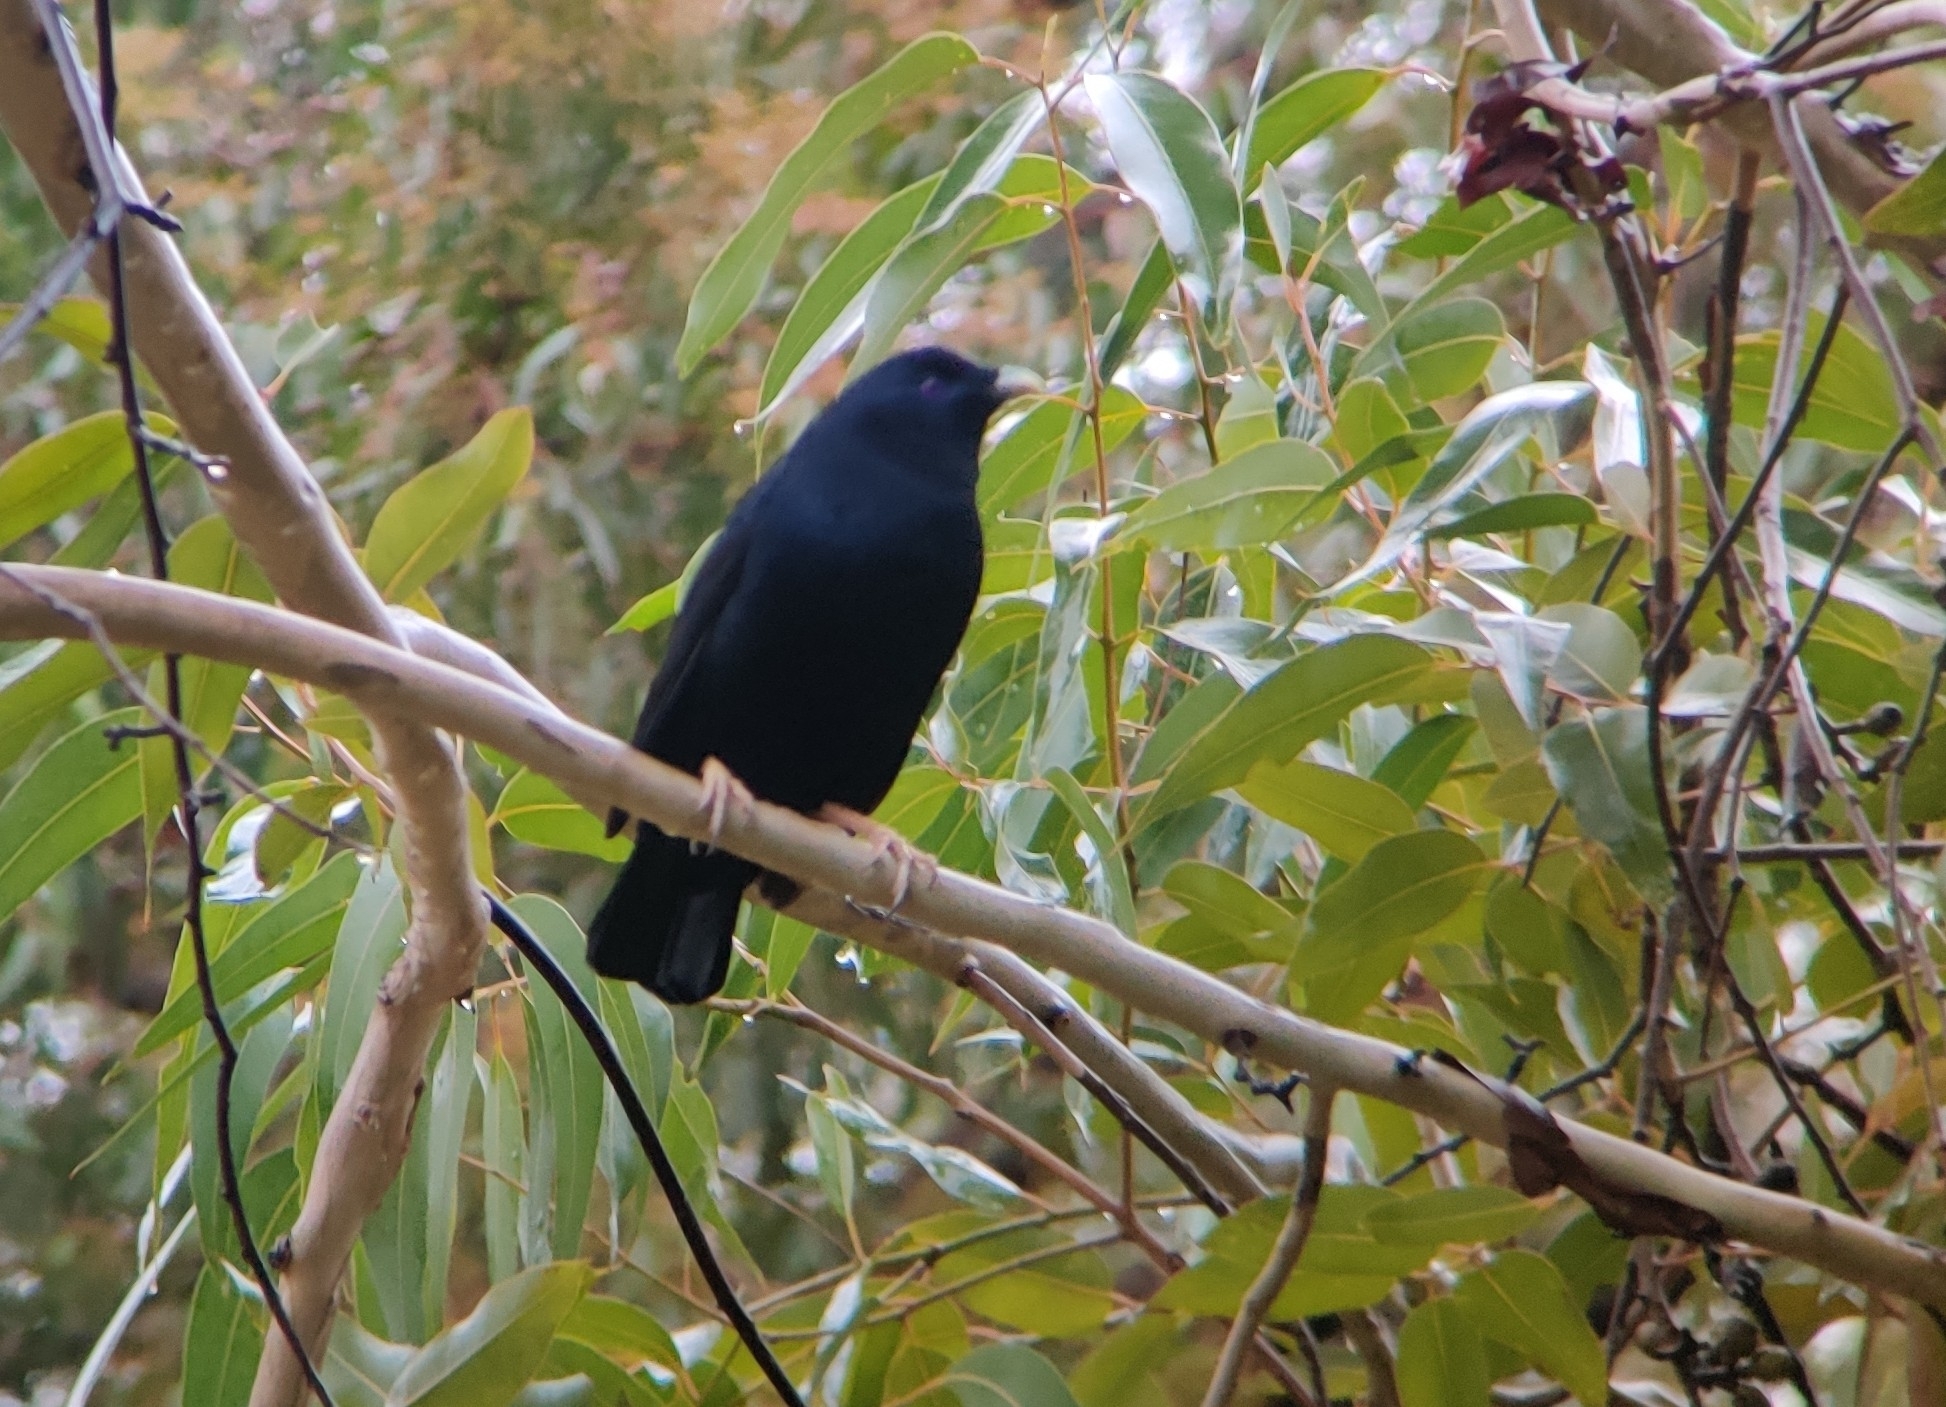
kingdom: Animalia
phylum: Chordata
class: Aves
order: Passeriformes
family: Ptilonorhynchidae
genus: Ptilonorhynchus
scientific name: Ptilonorhynchus violaceus
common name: Satin bowerbird
